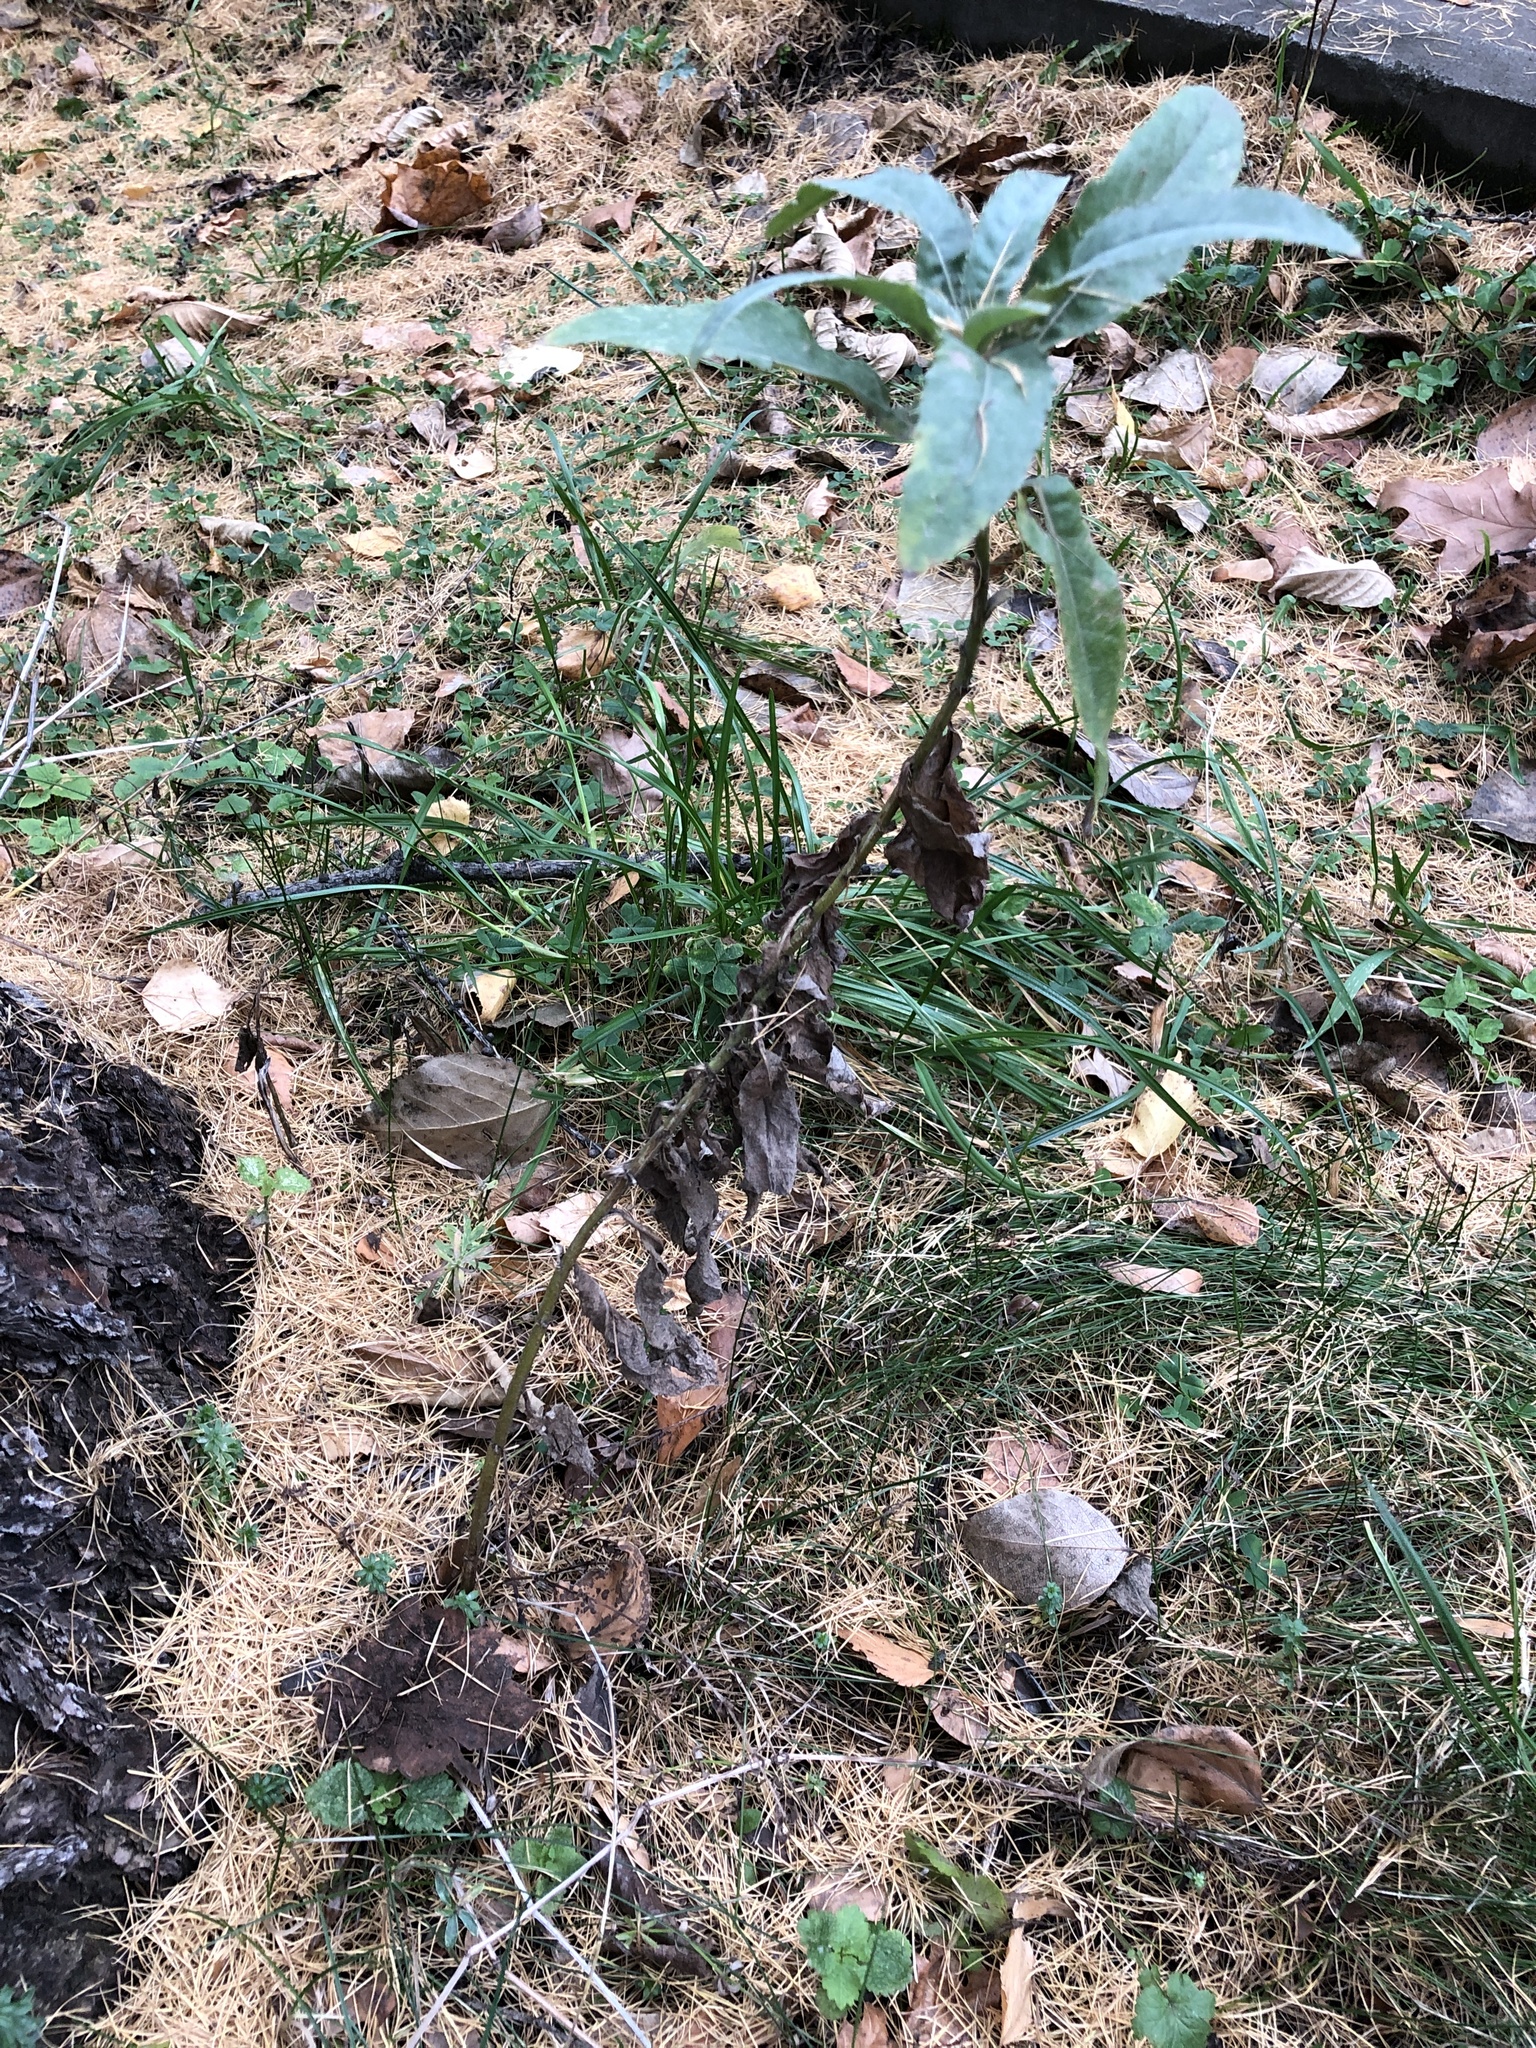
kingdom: Plantae
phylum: Tracheophyta
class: Magnoliopsida
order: Asterales
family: Asteraceae
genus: Cirsium
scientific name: Cirsium arvense
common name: Creeping thistle
